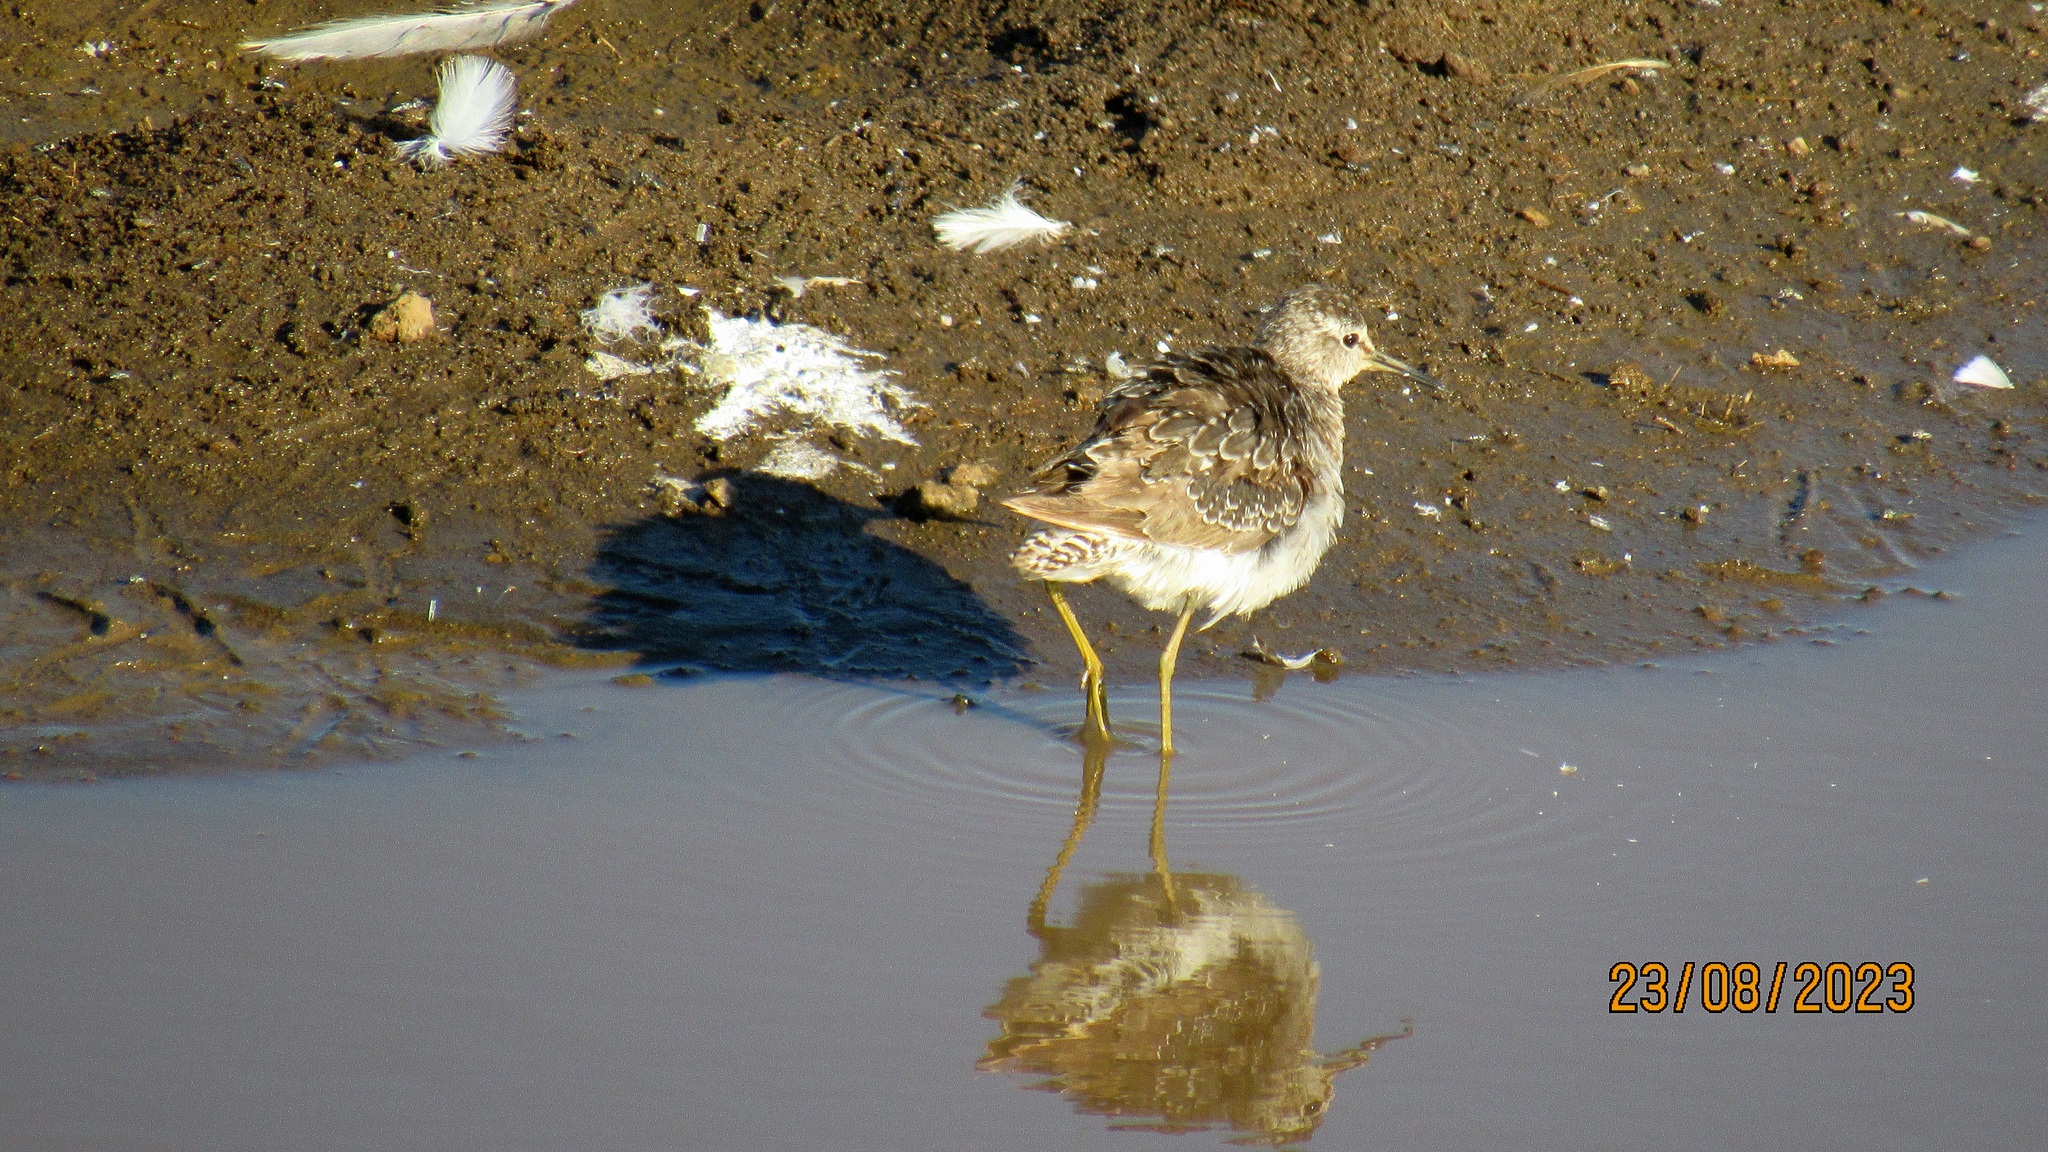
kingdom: Animalia
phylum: Chordata
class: Aves
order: Charadriiformes
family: Scolopacidae
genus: Tringa
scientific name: Tringa glareola
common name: Wood sandpiper
